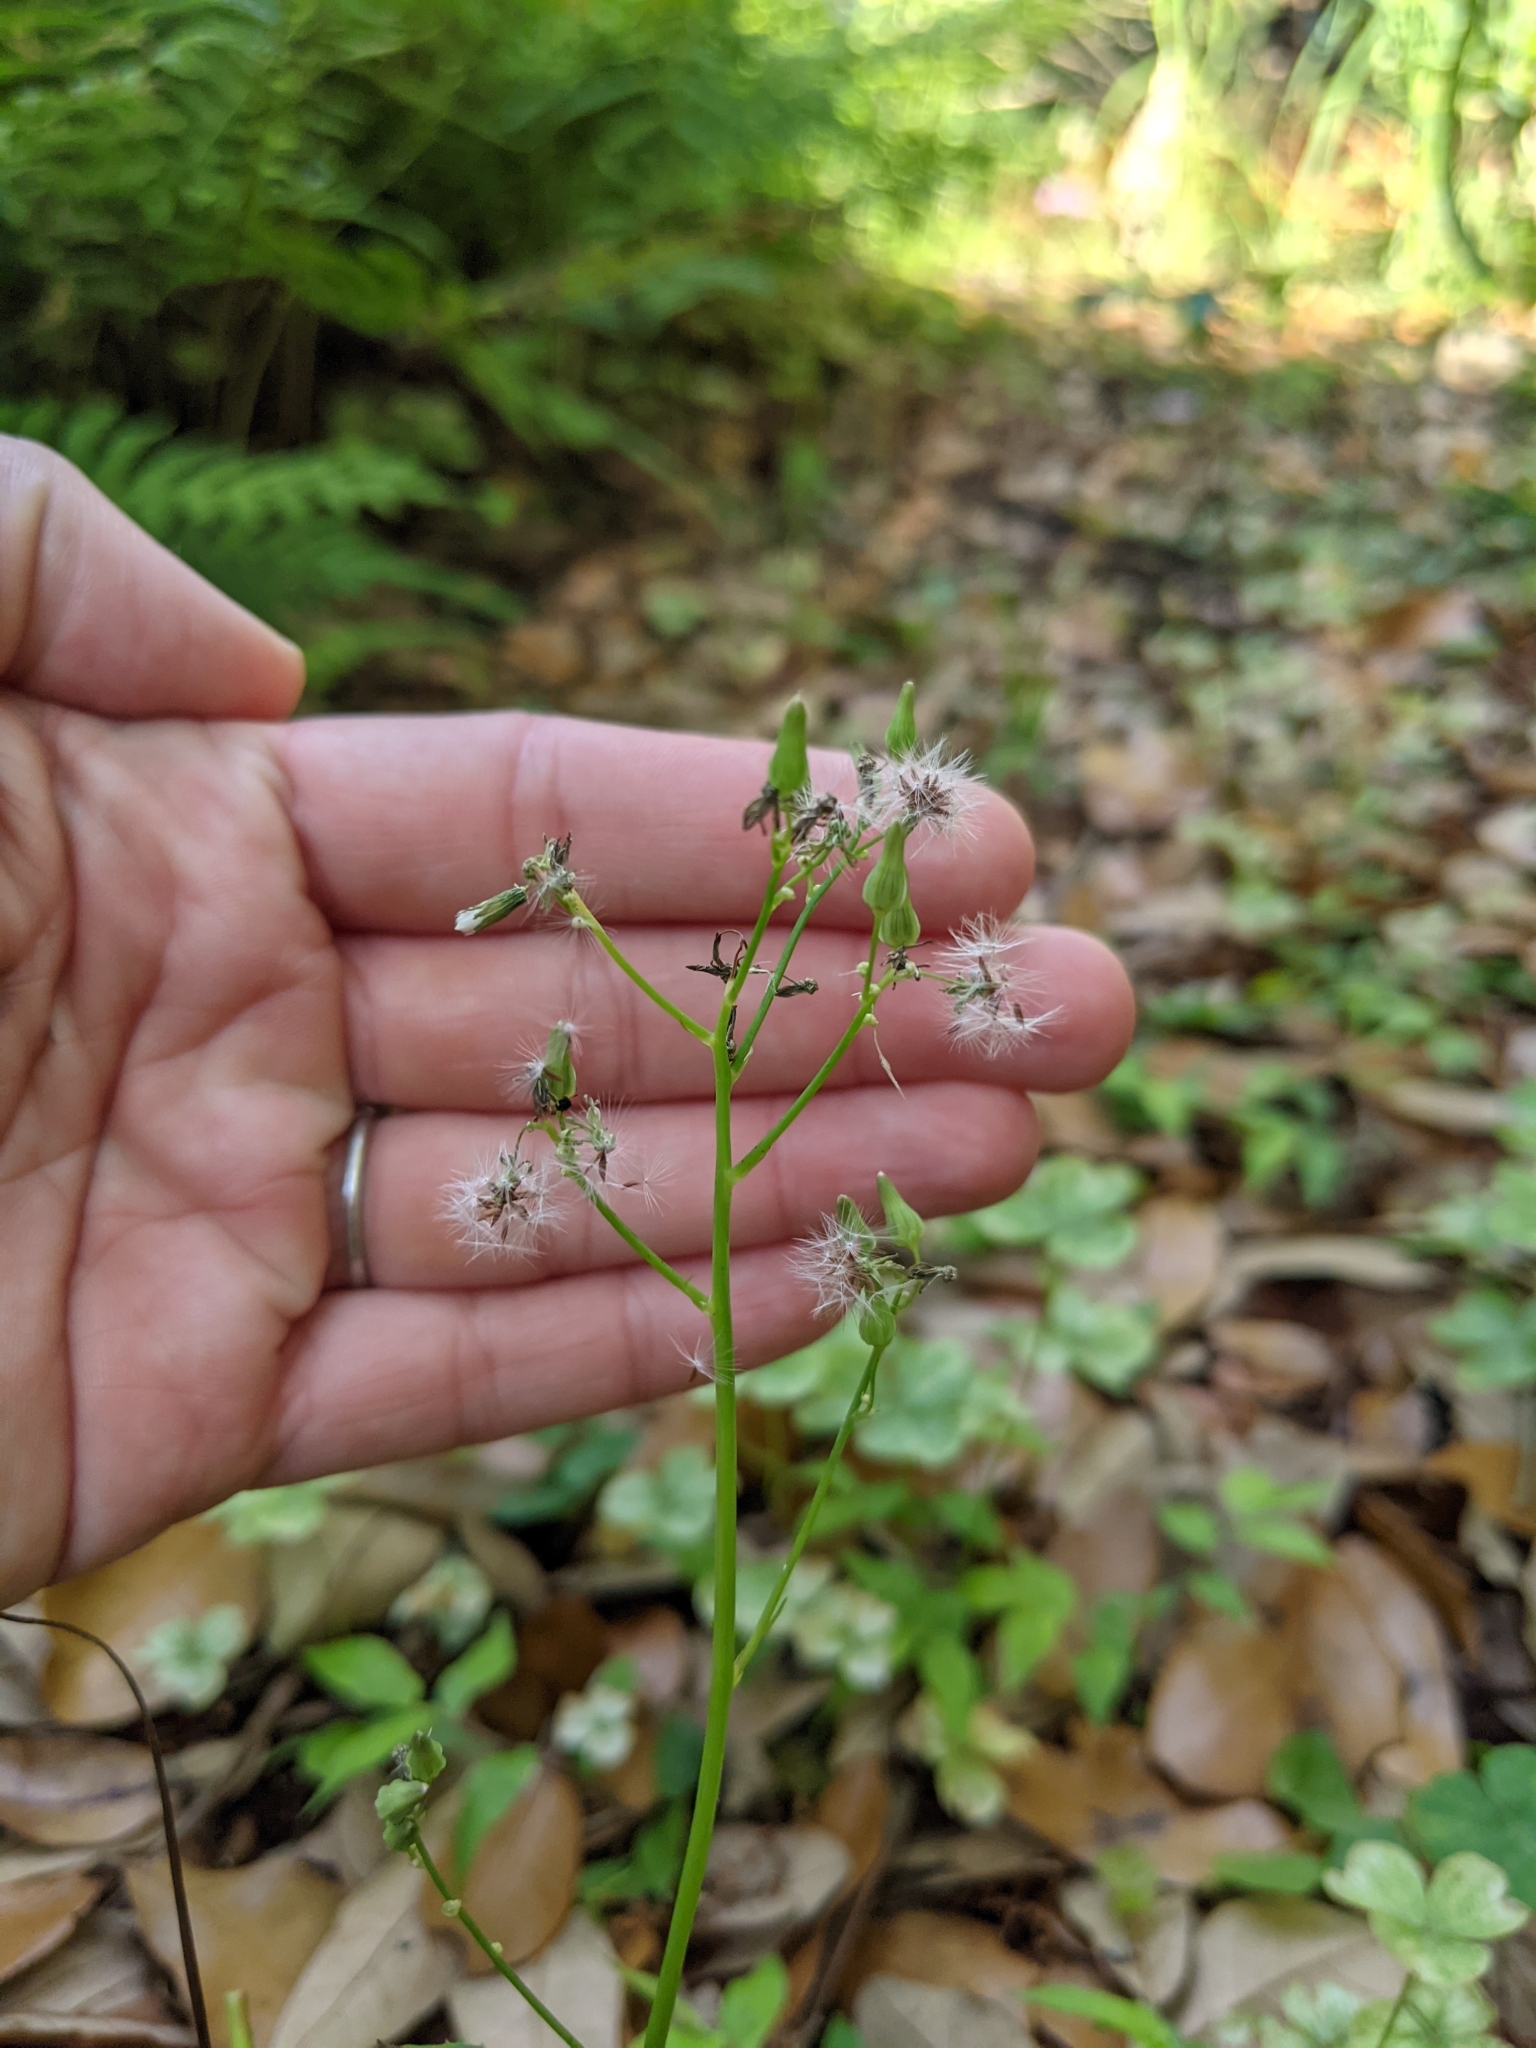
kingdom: Plantae
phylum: Tracheophyta
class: Magnoliopsida
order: Asterales
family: Asteraceae
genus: Youngia
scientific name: Youngia japonica
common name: Oriental false hawksbeard
